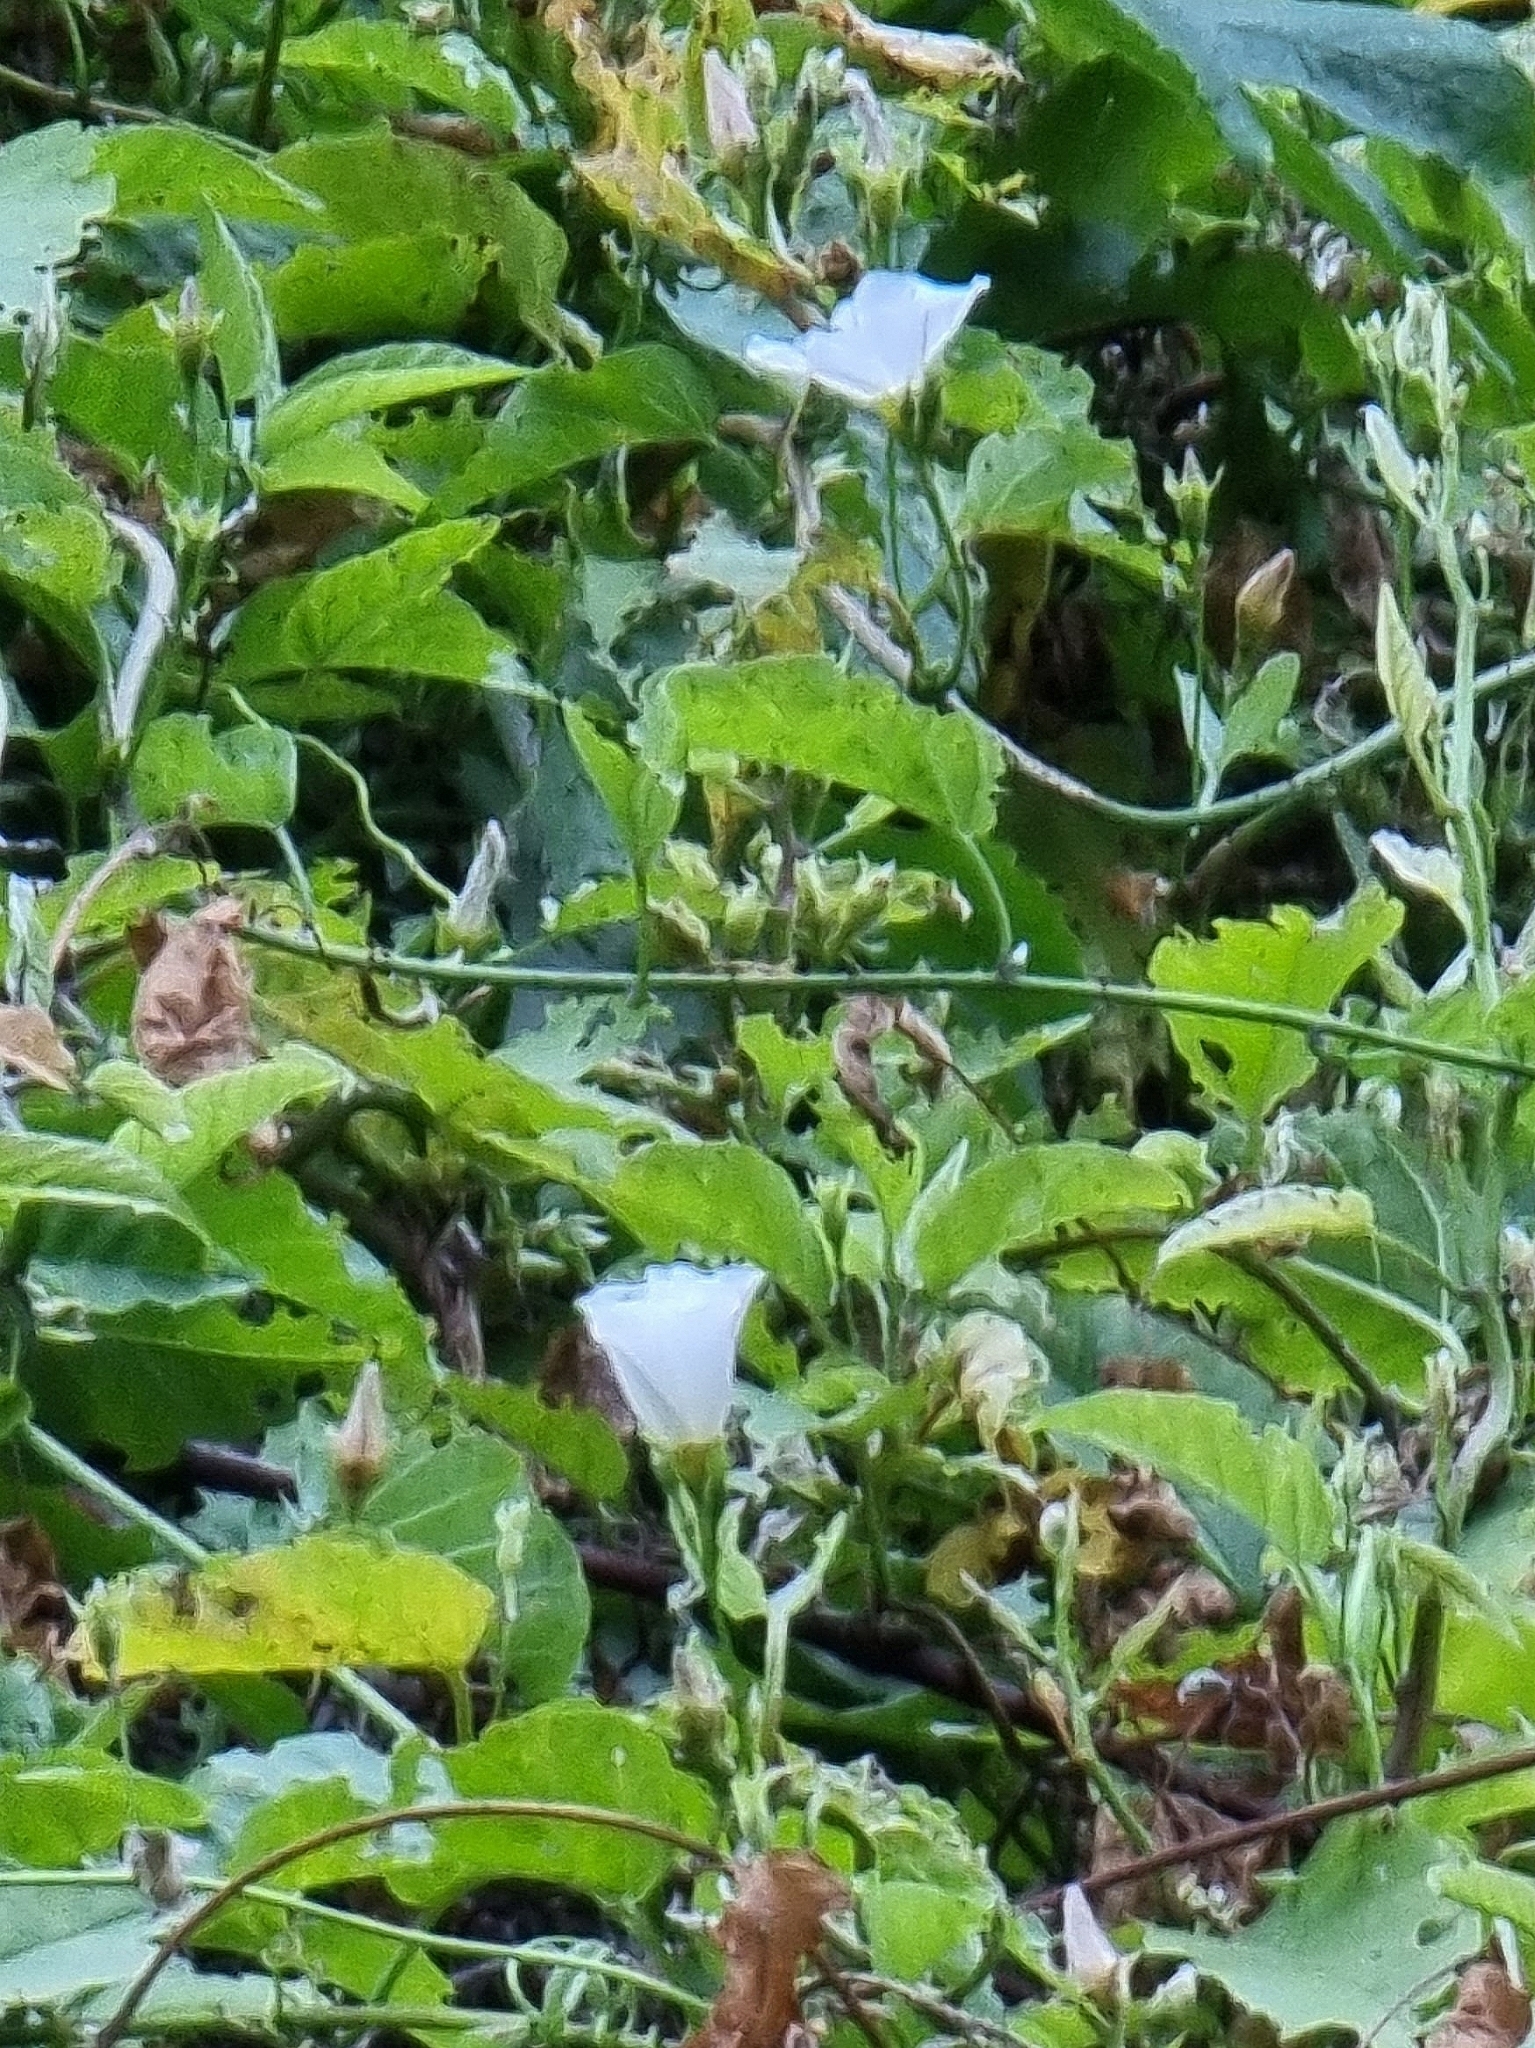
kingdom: Plantae
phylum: Tracheophyta
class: Magnoliopsida
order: Solanales
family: Convolvulaceae
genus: Convolvulus
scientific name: Convolvulus massonii
